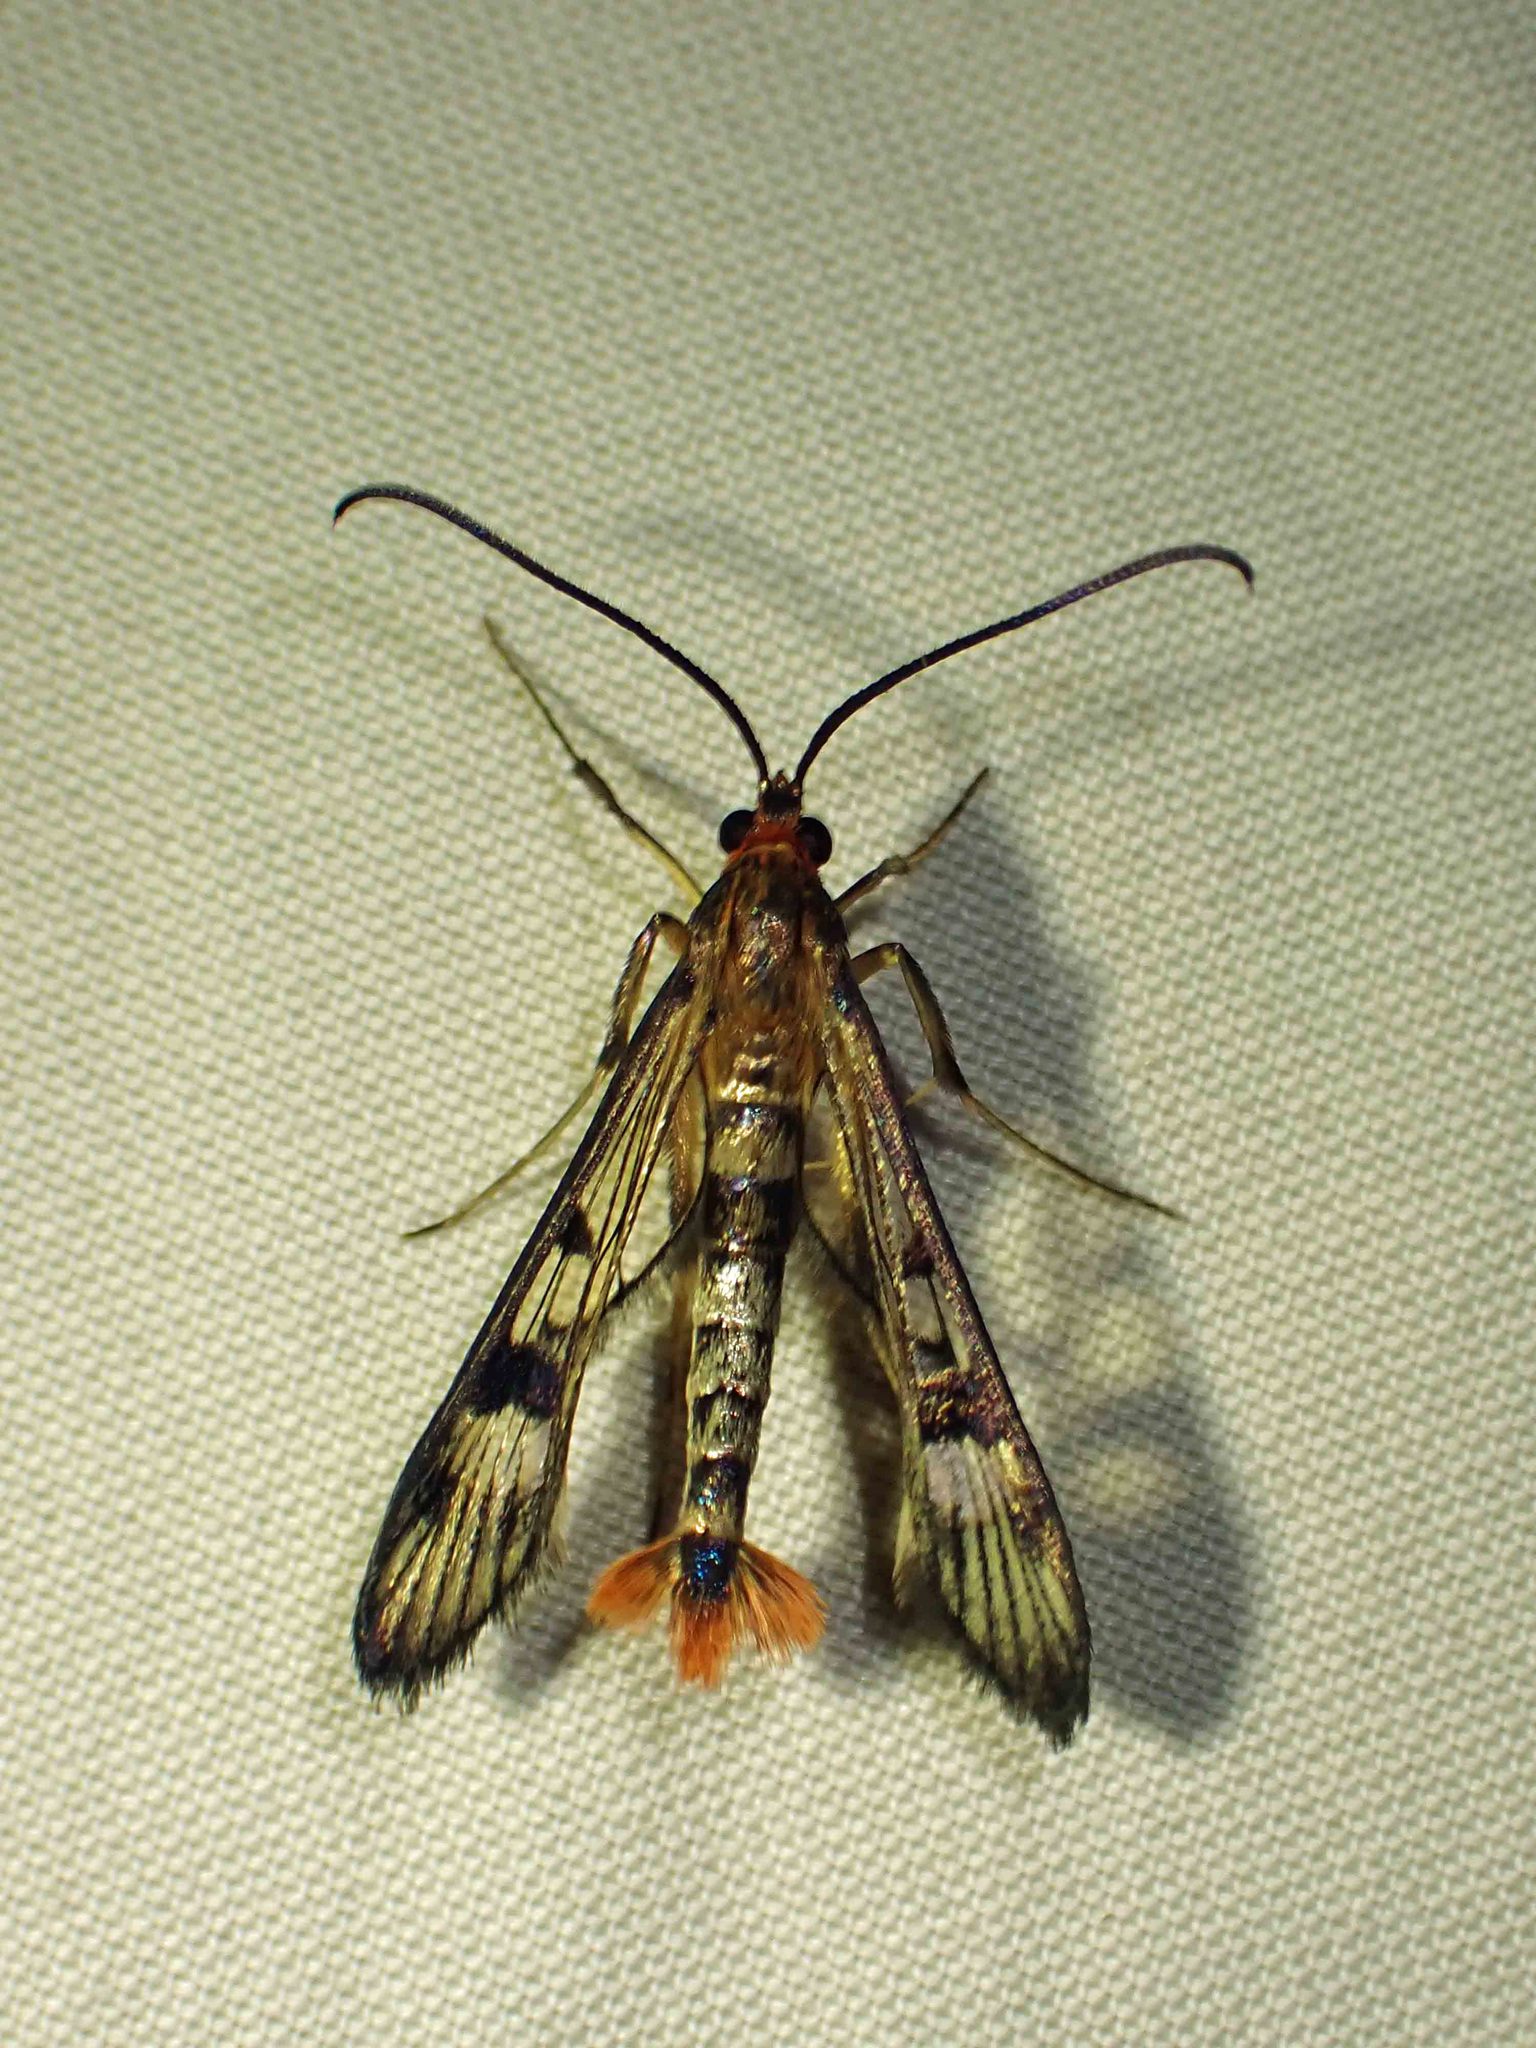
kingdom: Animalia
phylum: Arthropoda
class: Insecta
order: Lepidoptera
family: Sesiidae
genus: Synanthedon
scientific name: Synanthedon acerni
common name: Maple callus borer moth
